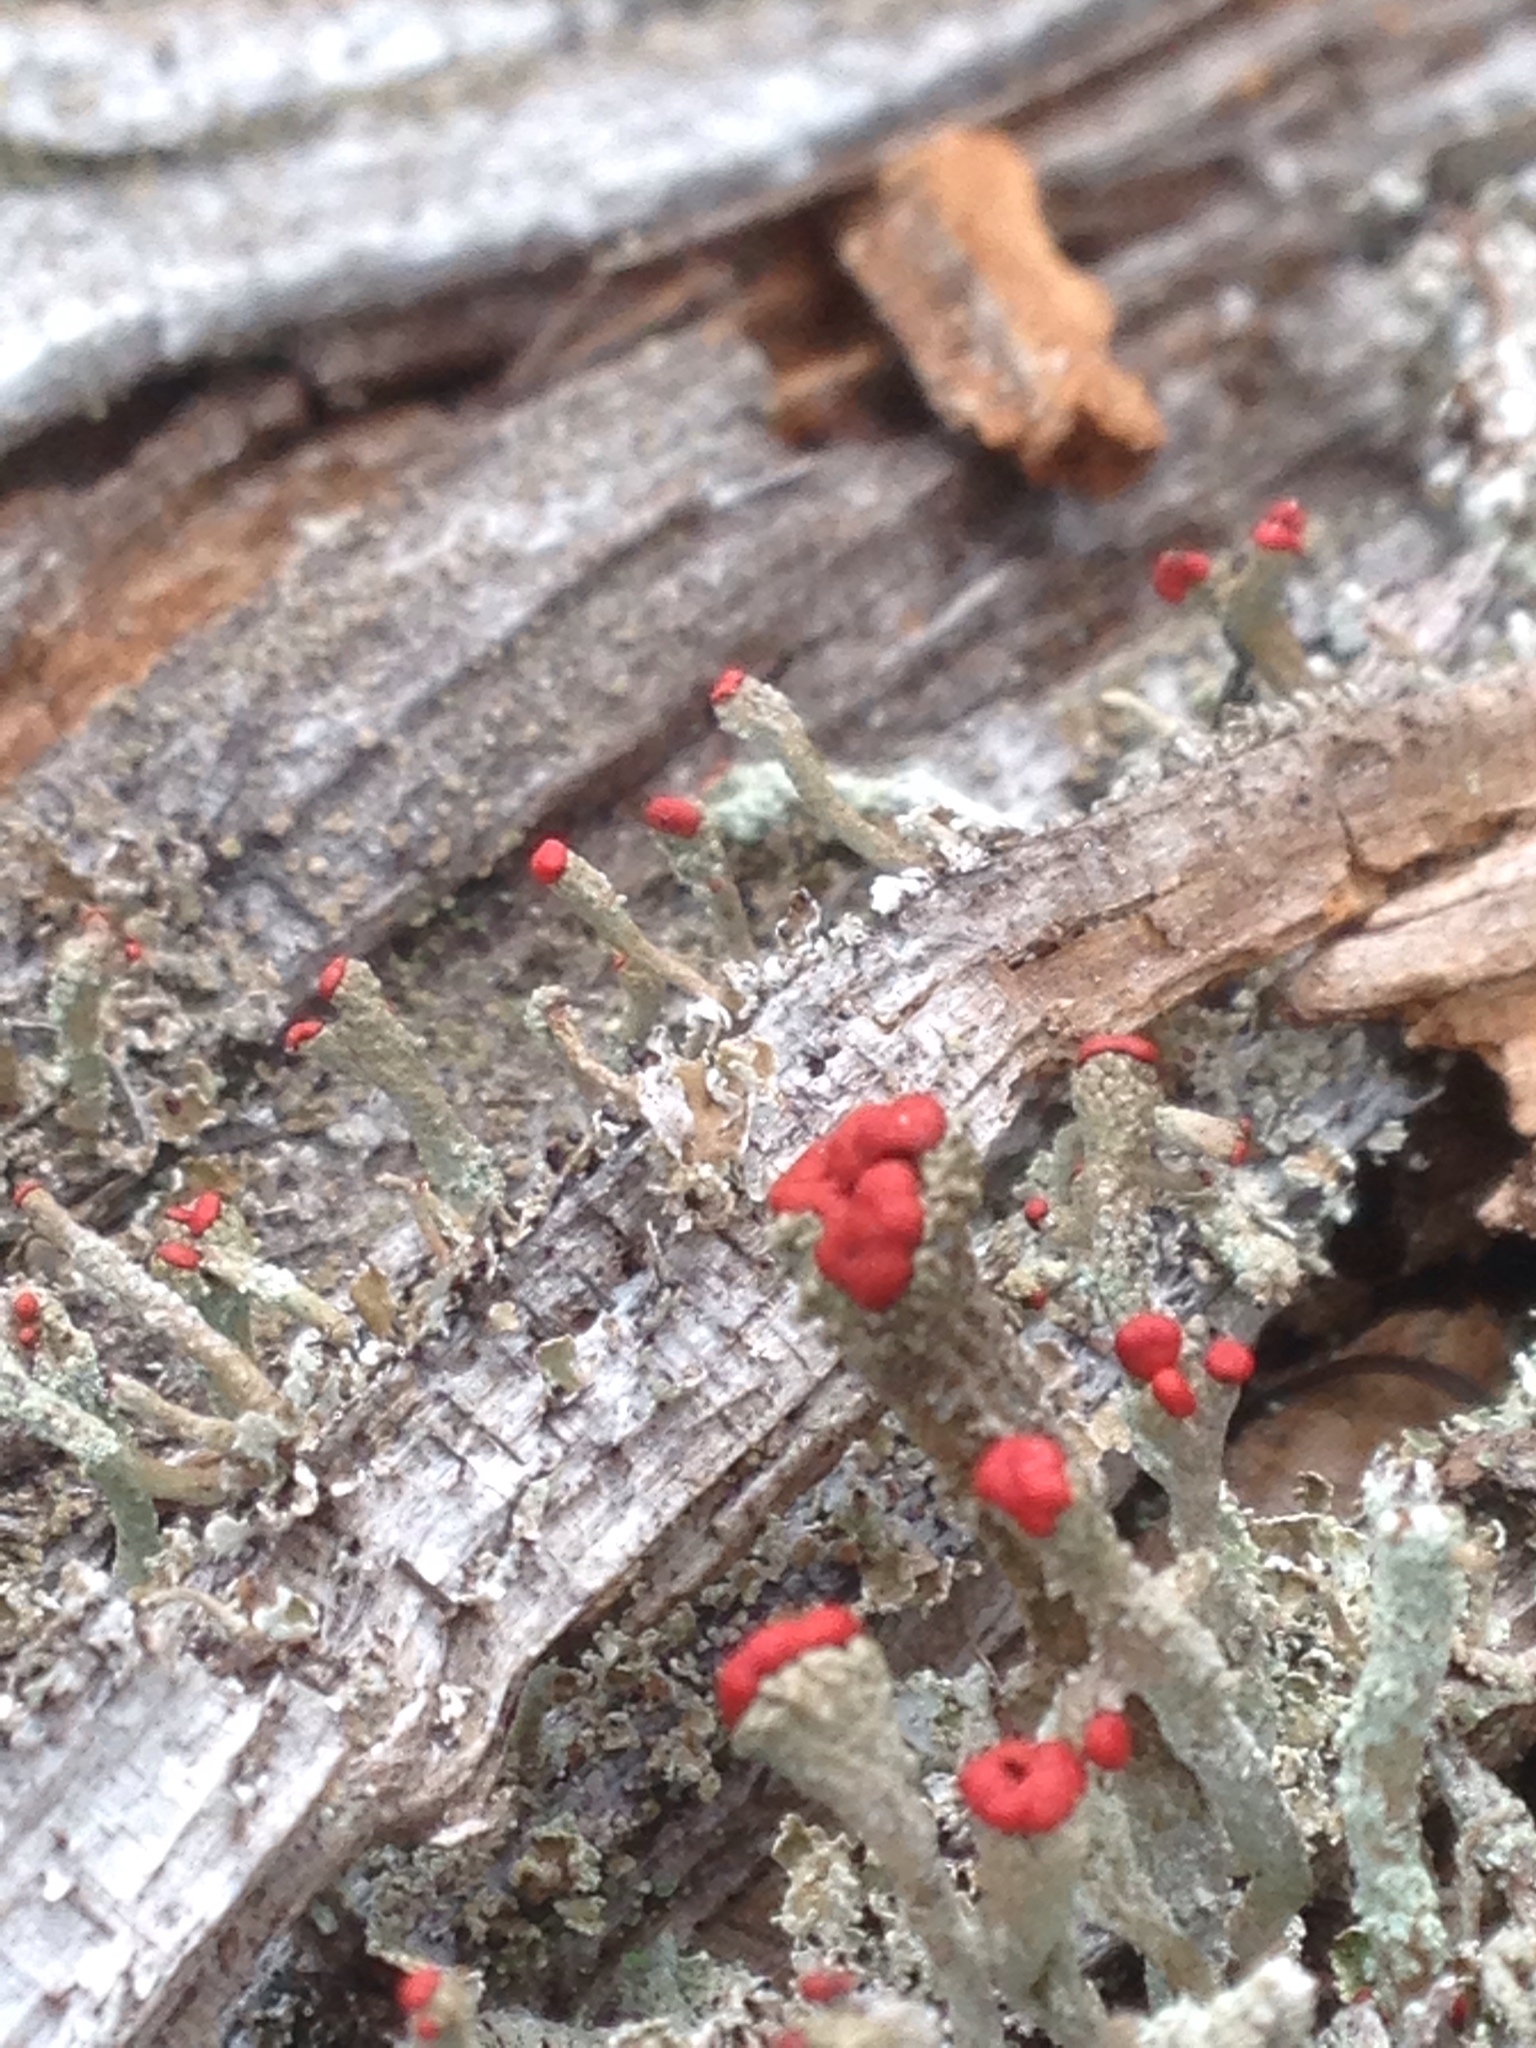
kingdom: Fungi
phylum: Ascomycota
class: Lecanoromycetes
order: Lecanorales
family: Cladoniaceae
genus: Cladonia
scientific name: Cladonia cristatella
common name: British soldier lichen
